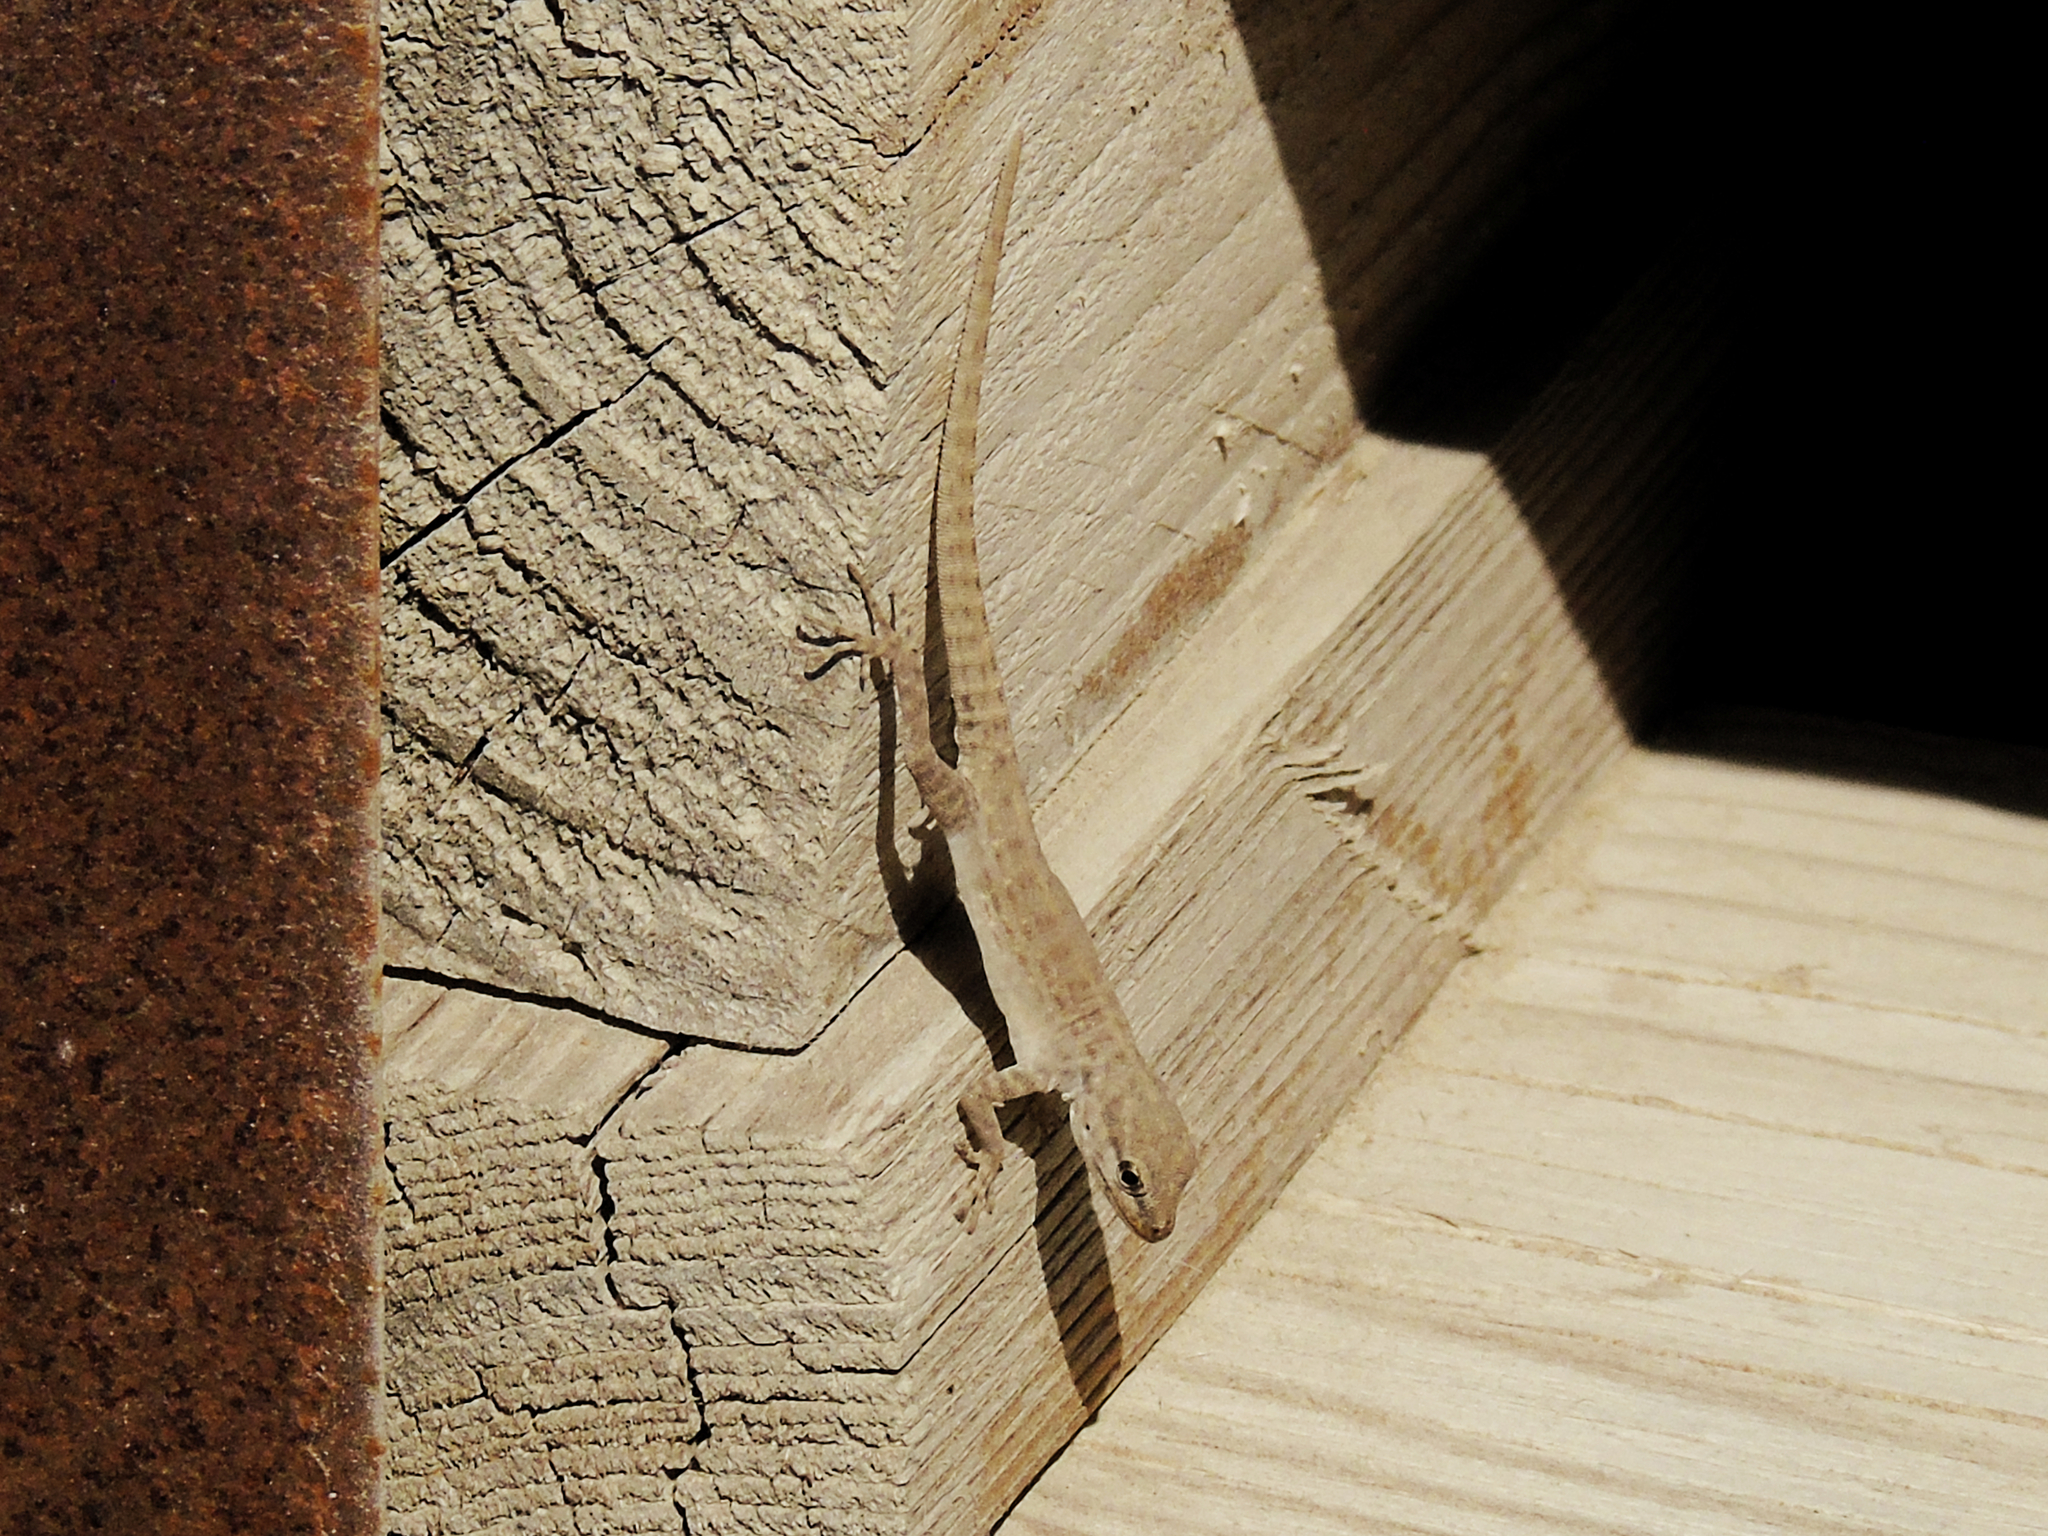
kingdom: Animalia
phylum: Chordata
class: Squamata
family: Sphaerodactylidae
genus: Pristurus
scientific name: Pristurus rupestris
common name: Blanford’s semaphore gecko
